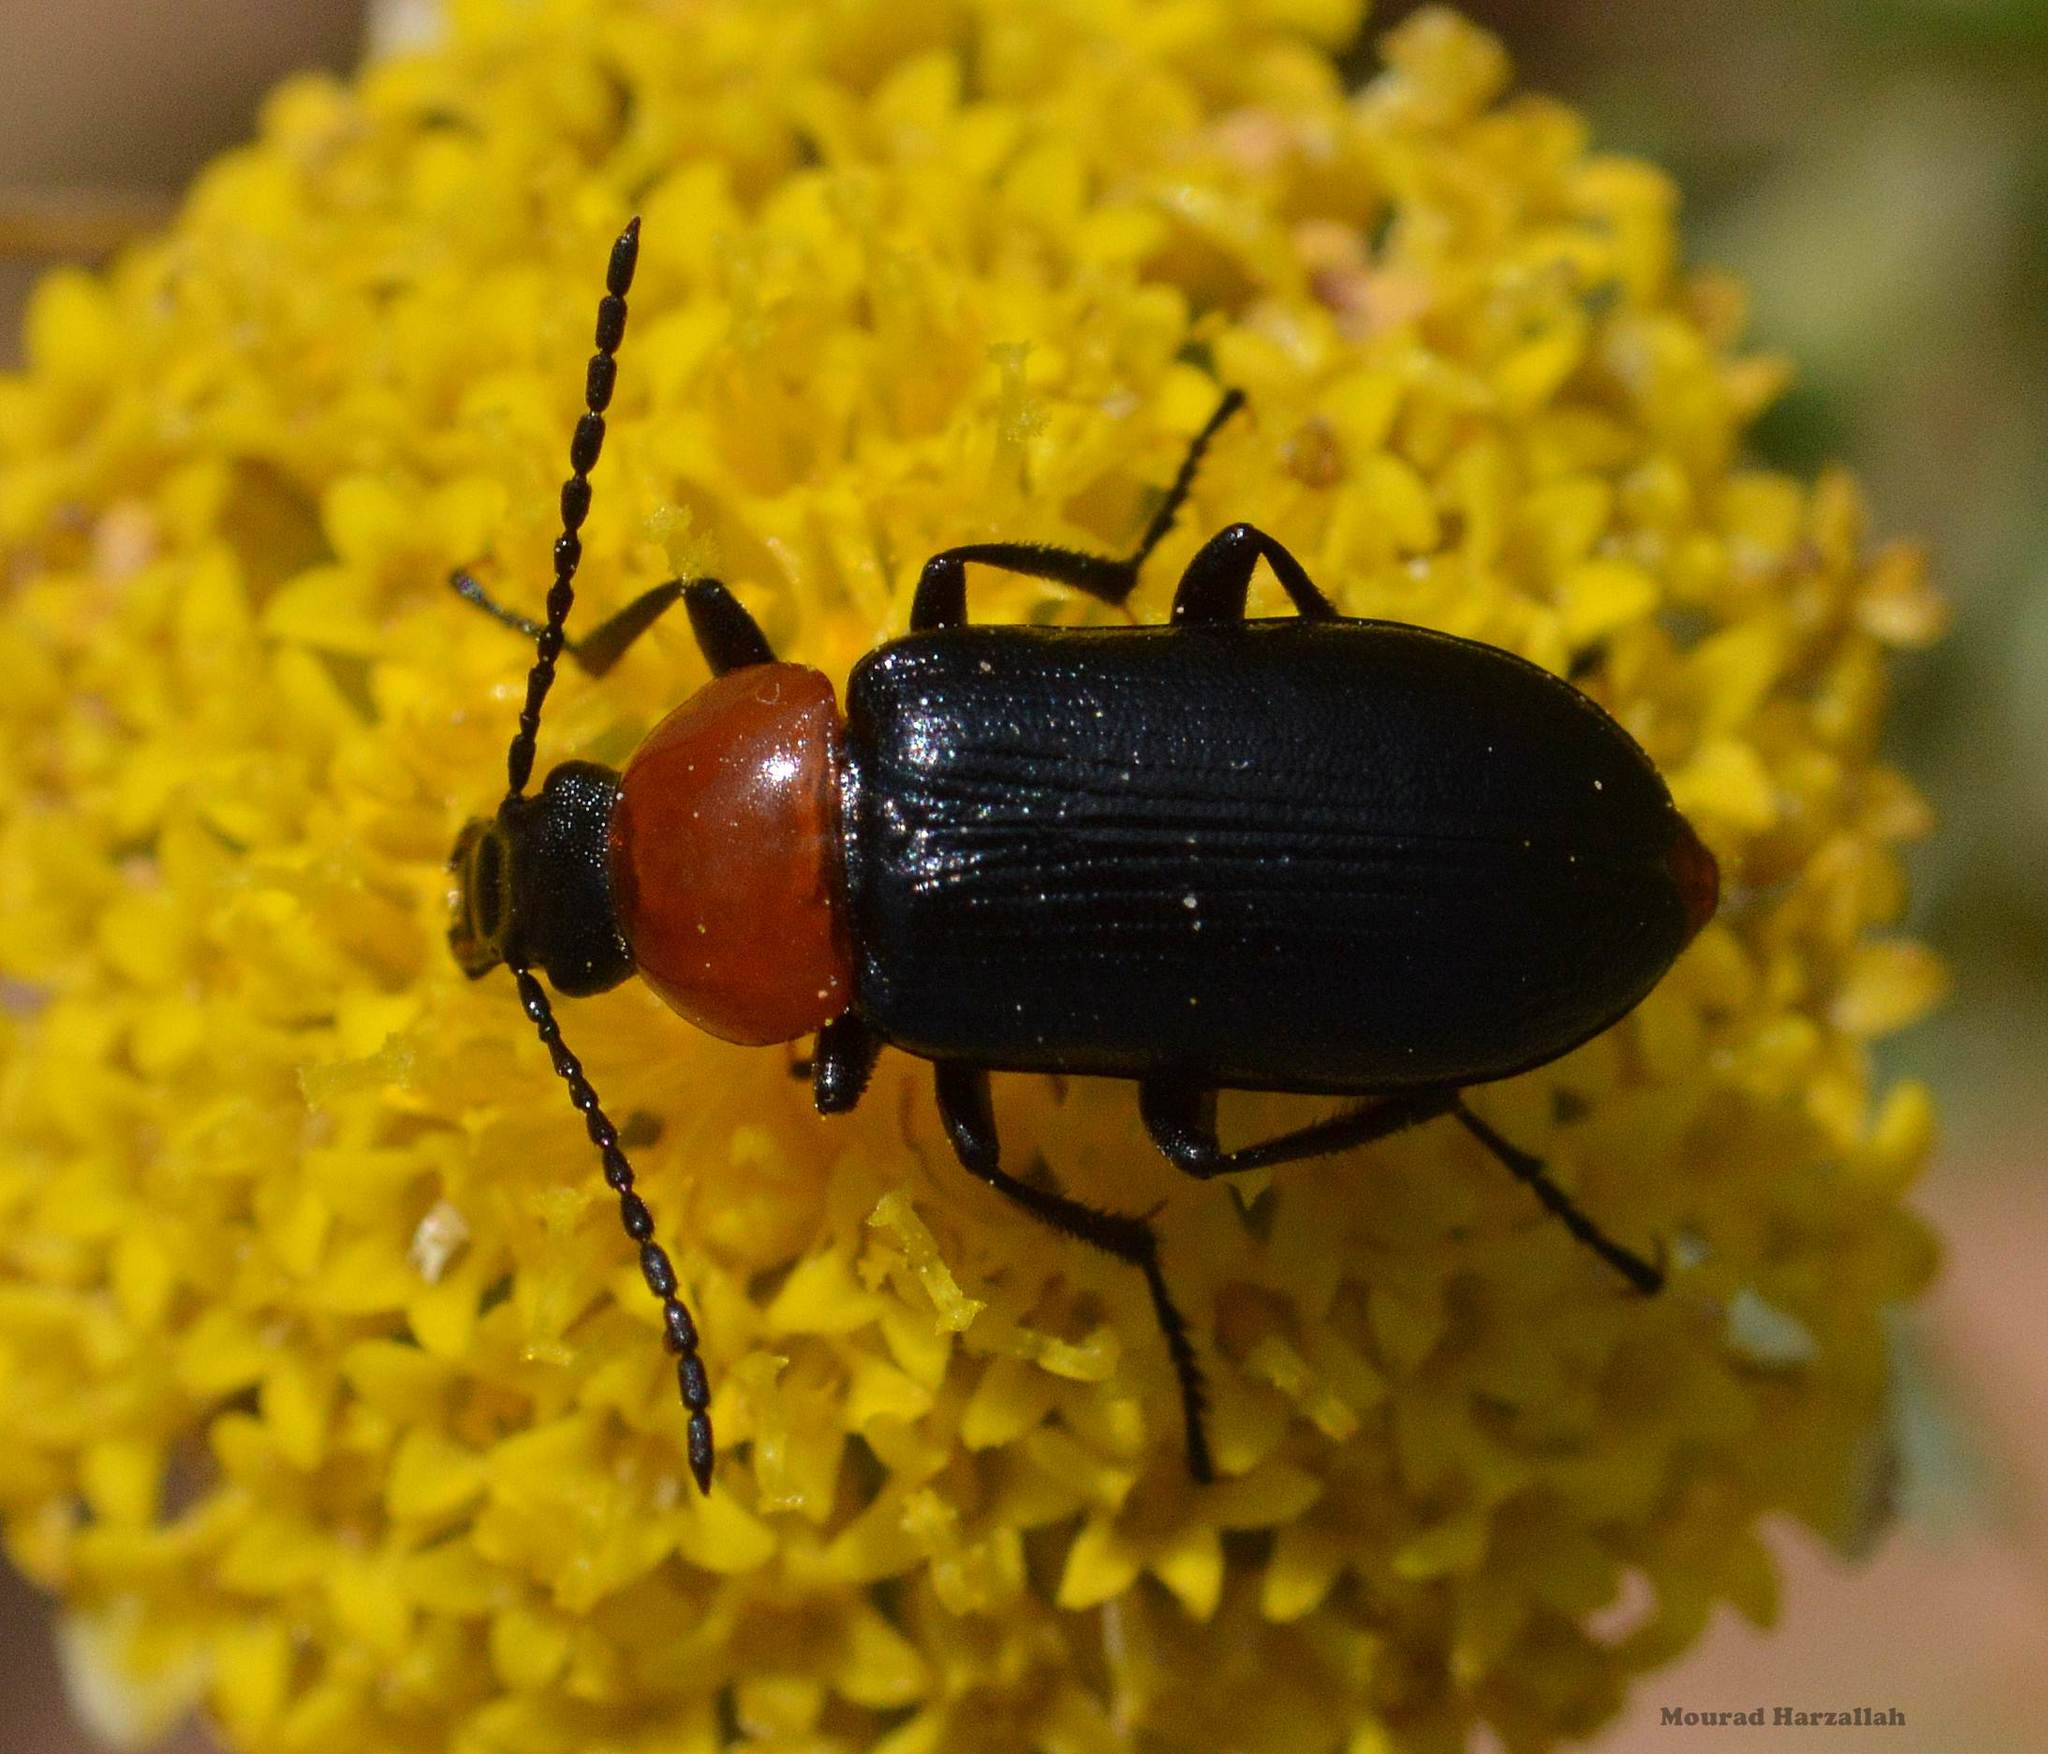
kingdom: Animalia
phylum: Arthropoda
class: Insecta
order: Coleoptera
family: Tenebrionidae
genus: Heliotaurus
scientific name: Heliotaurus ruficollis
